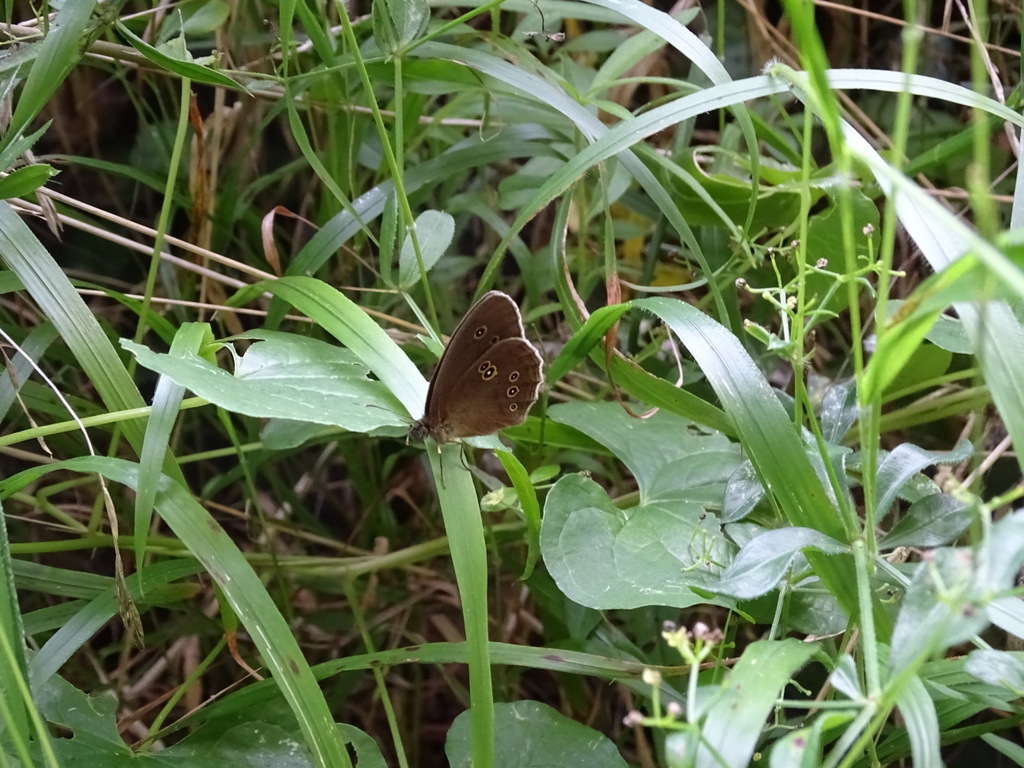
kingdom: Animalia
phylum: Arthropoda
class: Insecta
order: Lepidoptera
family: Nymphalidae
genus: Aphantopus
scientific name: Aphantopus hyperantus
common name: Ringlet
